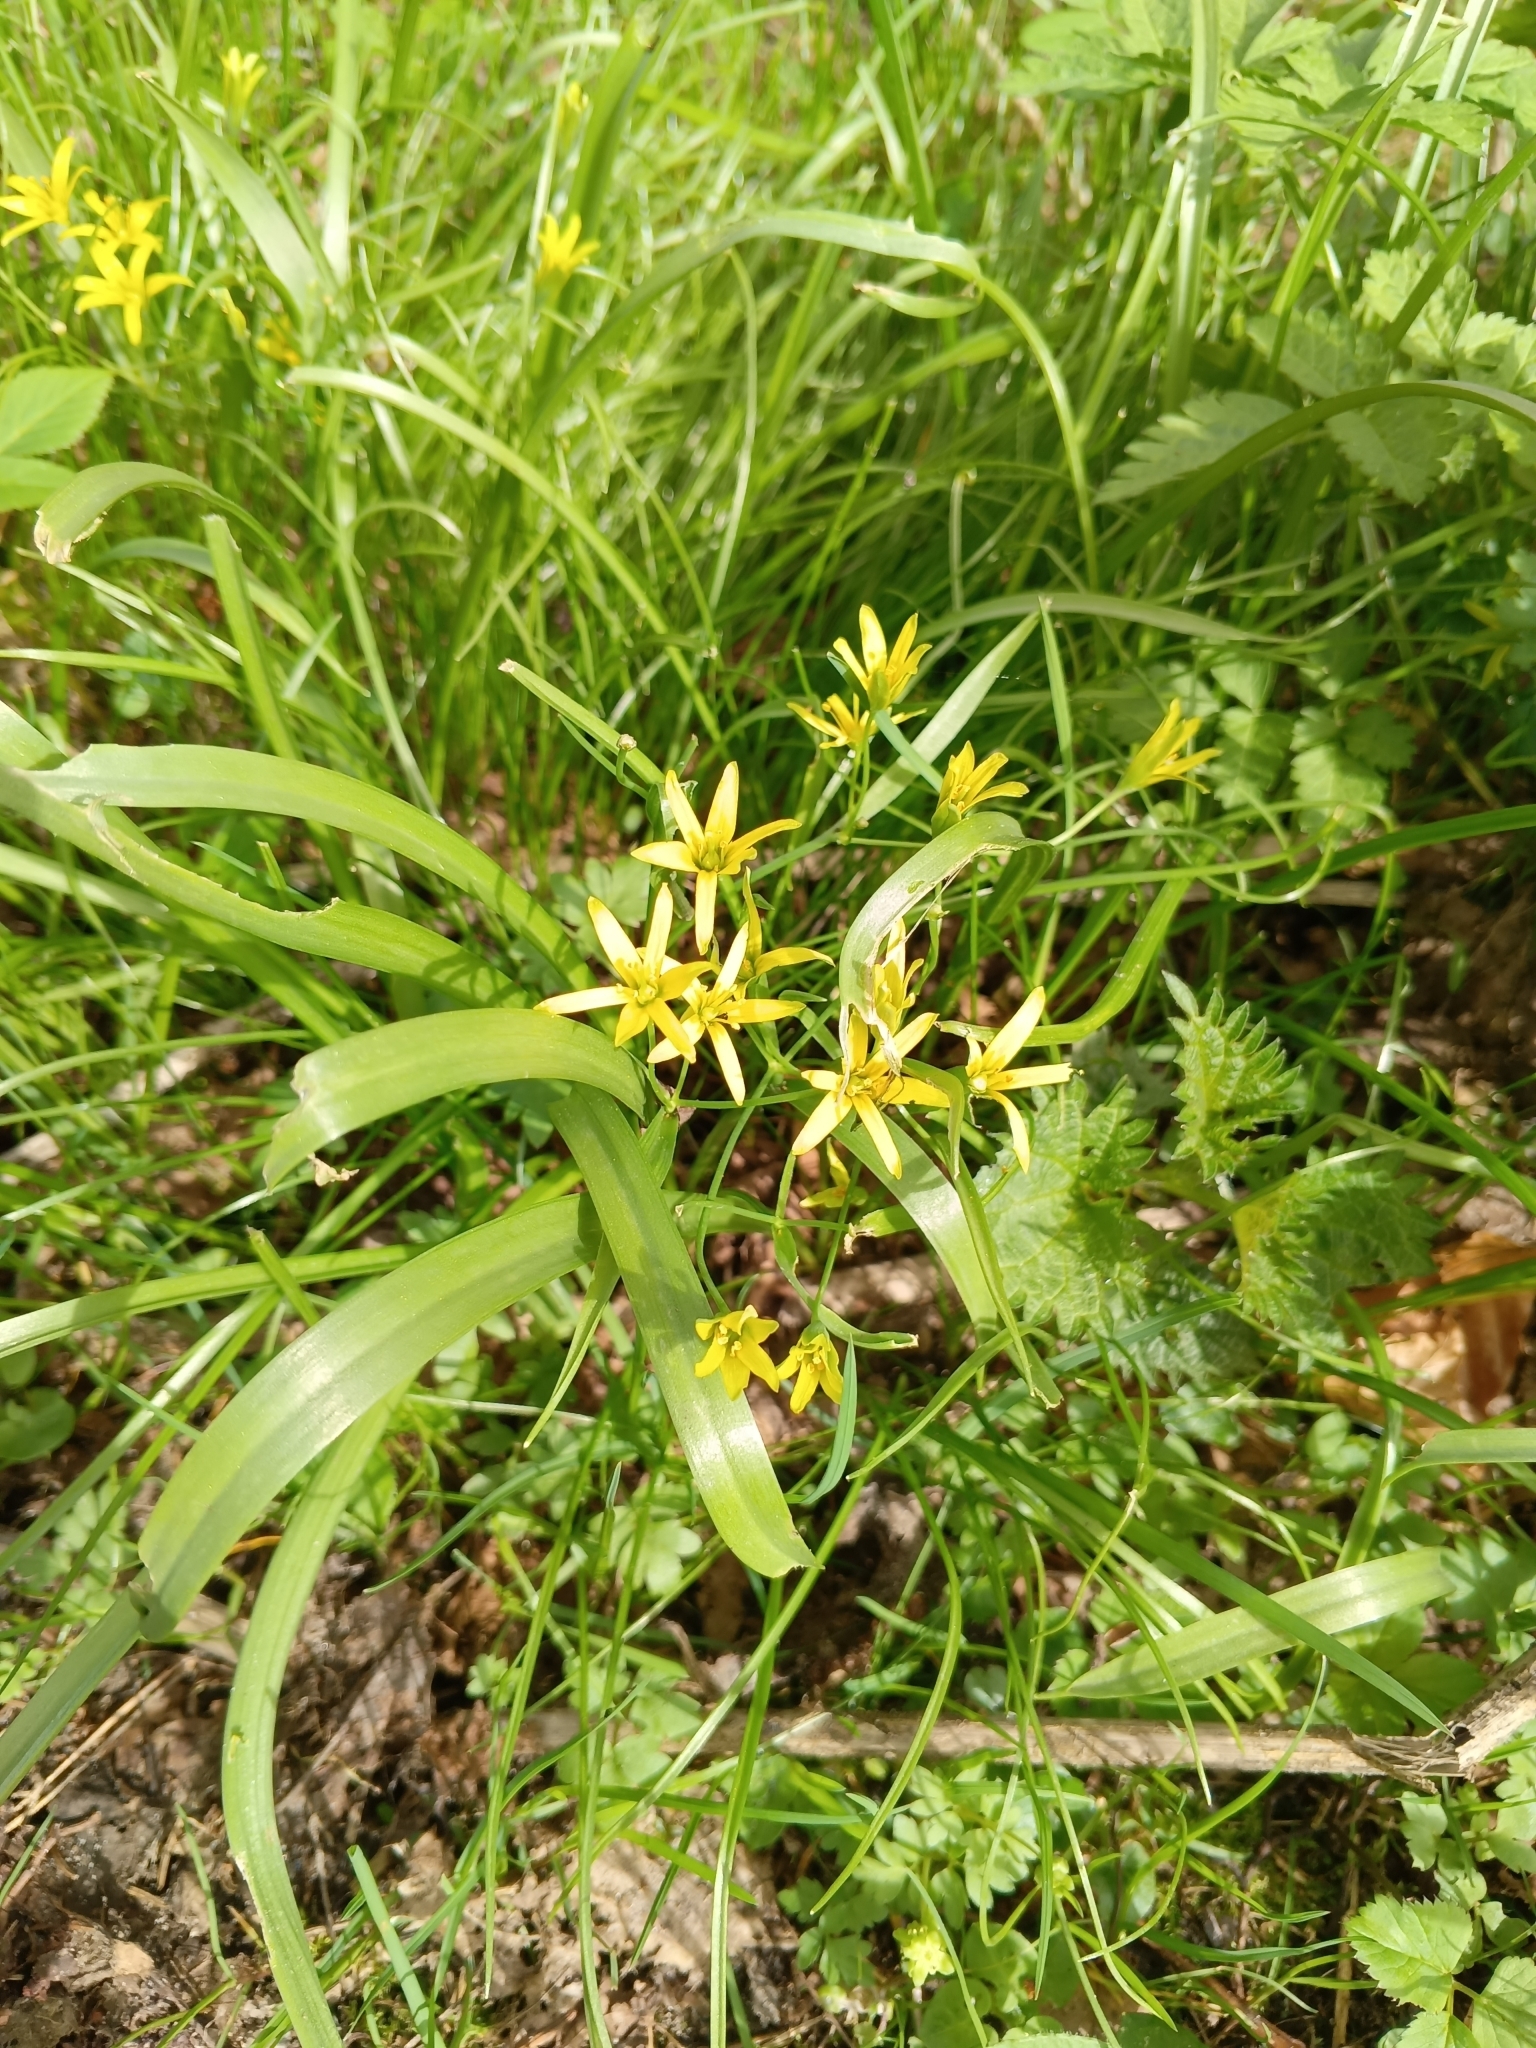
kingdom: Plantae
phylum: Tracheophyta
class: Liliopsida
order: Liliales
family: Liliaceae
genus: Gagea
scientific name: Gagea lutea
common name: Yellow star-of-bethlehem
